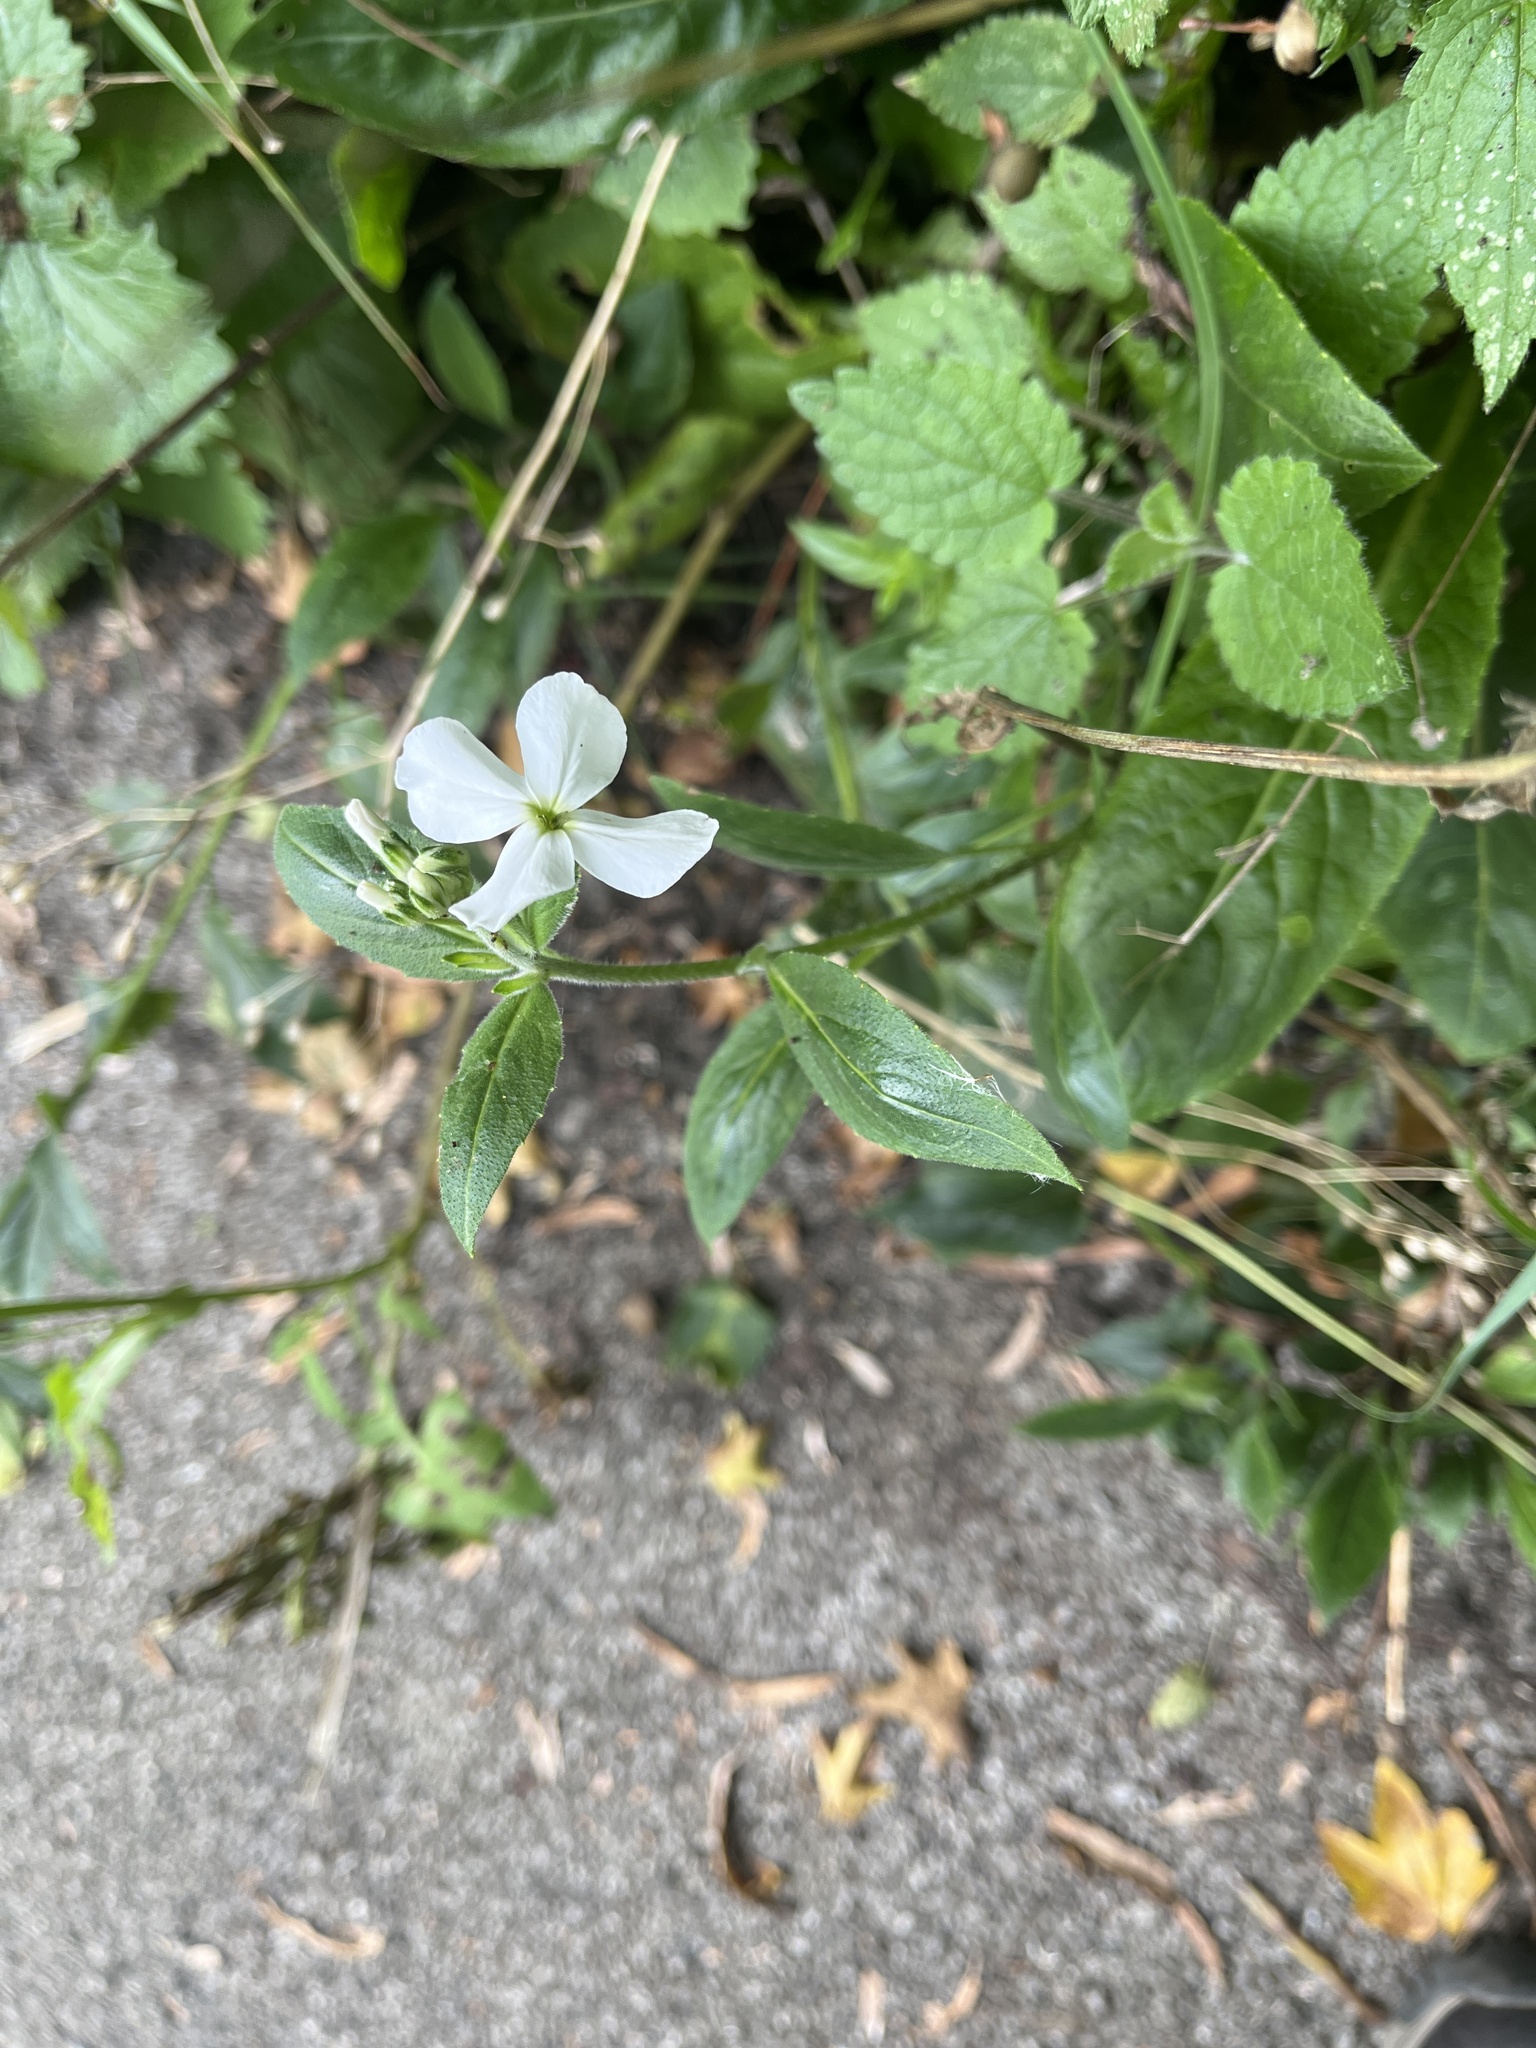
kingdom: Plantae
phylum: Tracheophyta
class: Magnoliopsida
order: Brassicales
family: Brassicaceae
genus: Hesperis
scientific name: Hesperis matronalis
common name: Dame's-violet
